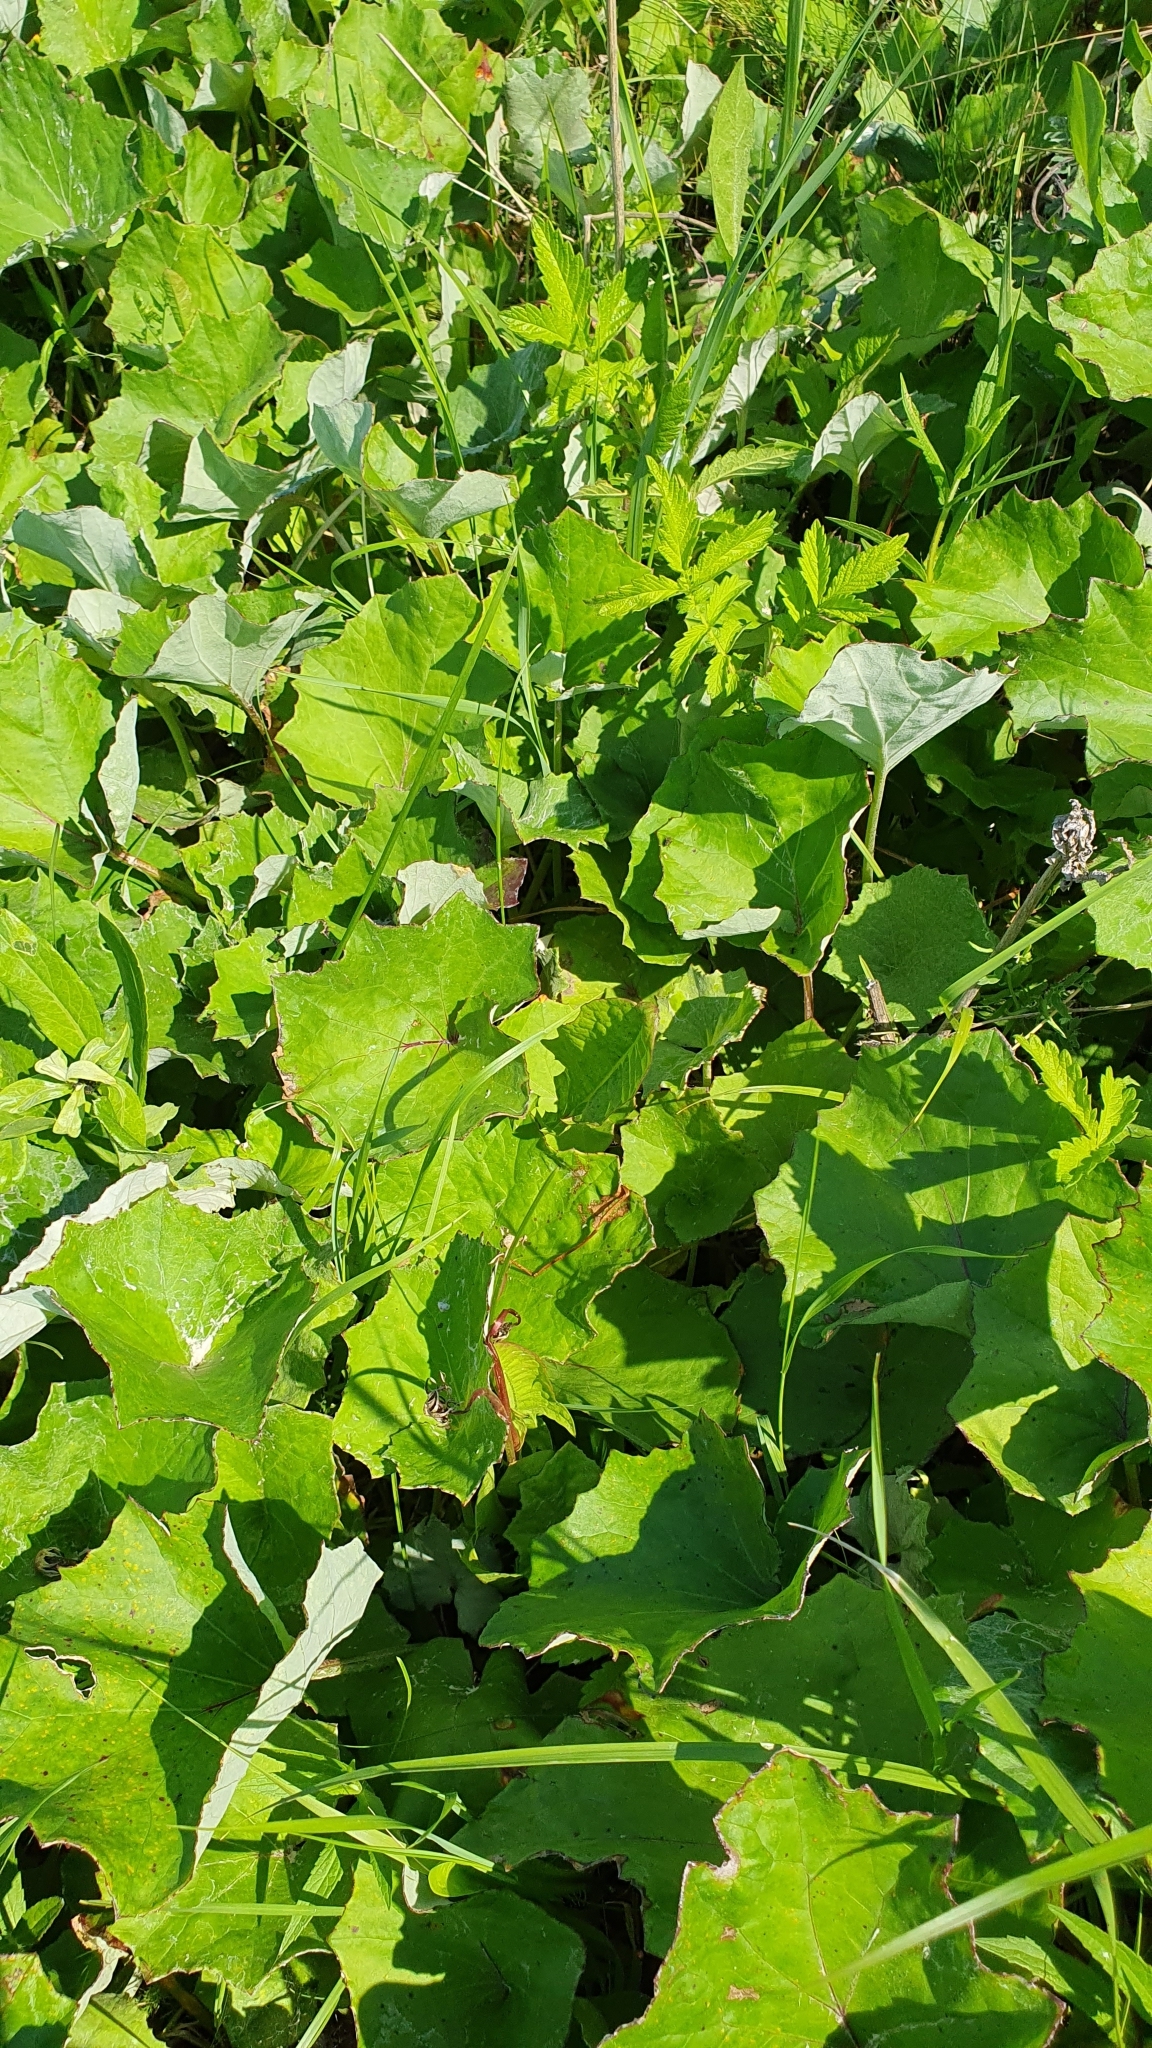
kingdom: Plantae
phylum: Tracheophyta
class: Magnoliopsida
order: Asterales
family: Asteraceae
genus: Tussilago
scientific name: Tussilago farfara
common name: Coltsfoot
